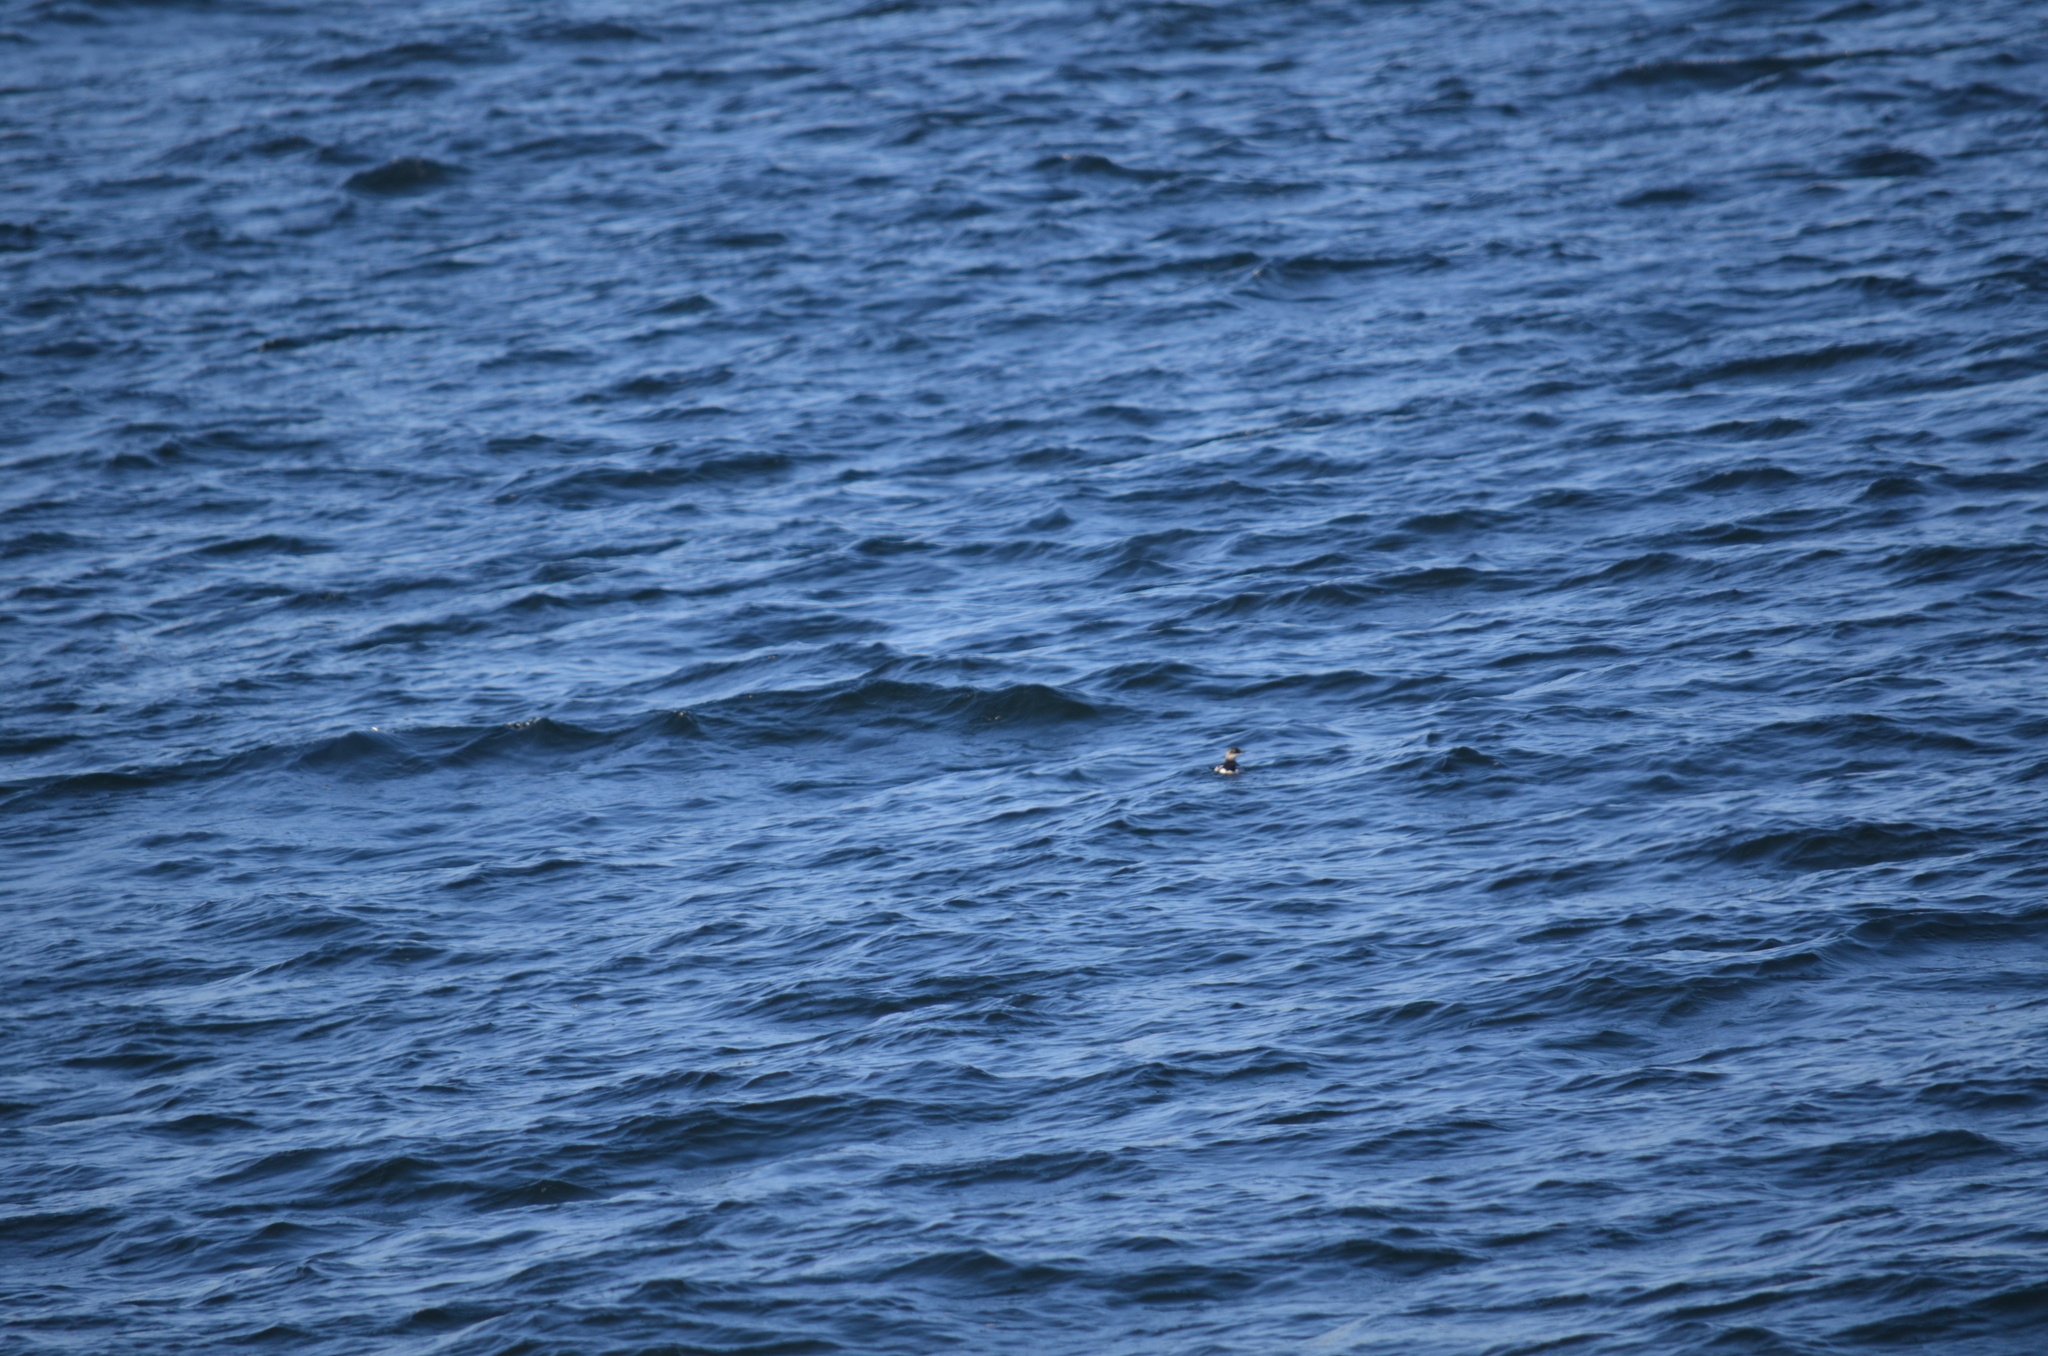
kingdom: Animalia
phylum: Chordata
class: Aves
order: Charadriiformes
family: Alcidae
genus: Uria
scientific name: Uria aalge
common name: Common murre
